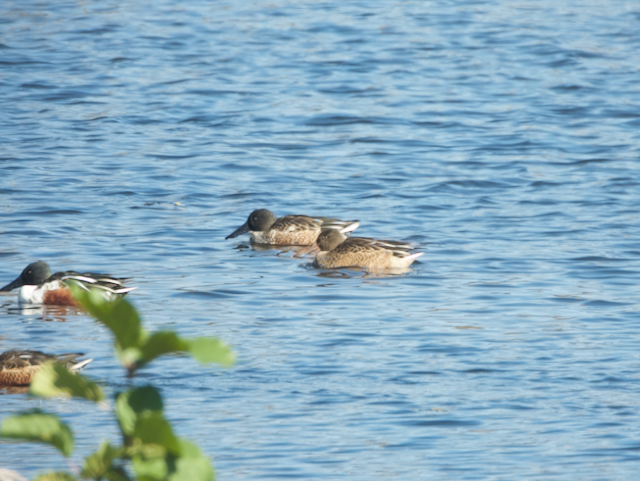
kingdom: Animalia
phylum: Chordata
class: Aves
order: Anseriformes
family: Anatidae
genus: Spatula
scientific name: Spatula clypeata
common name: Northern shoveler
